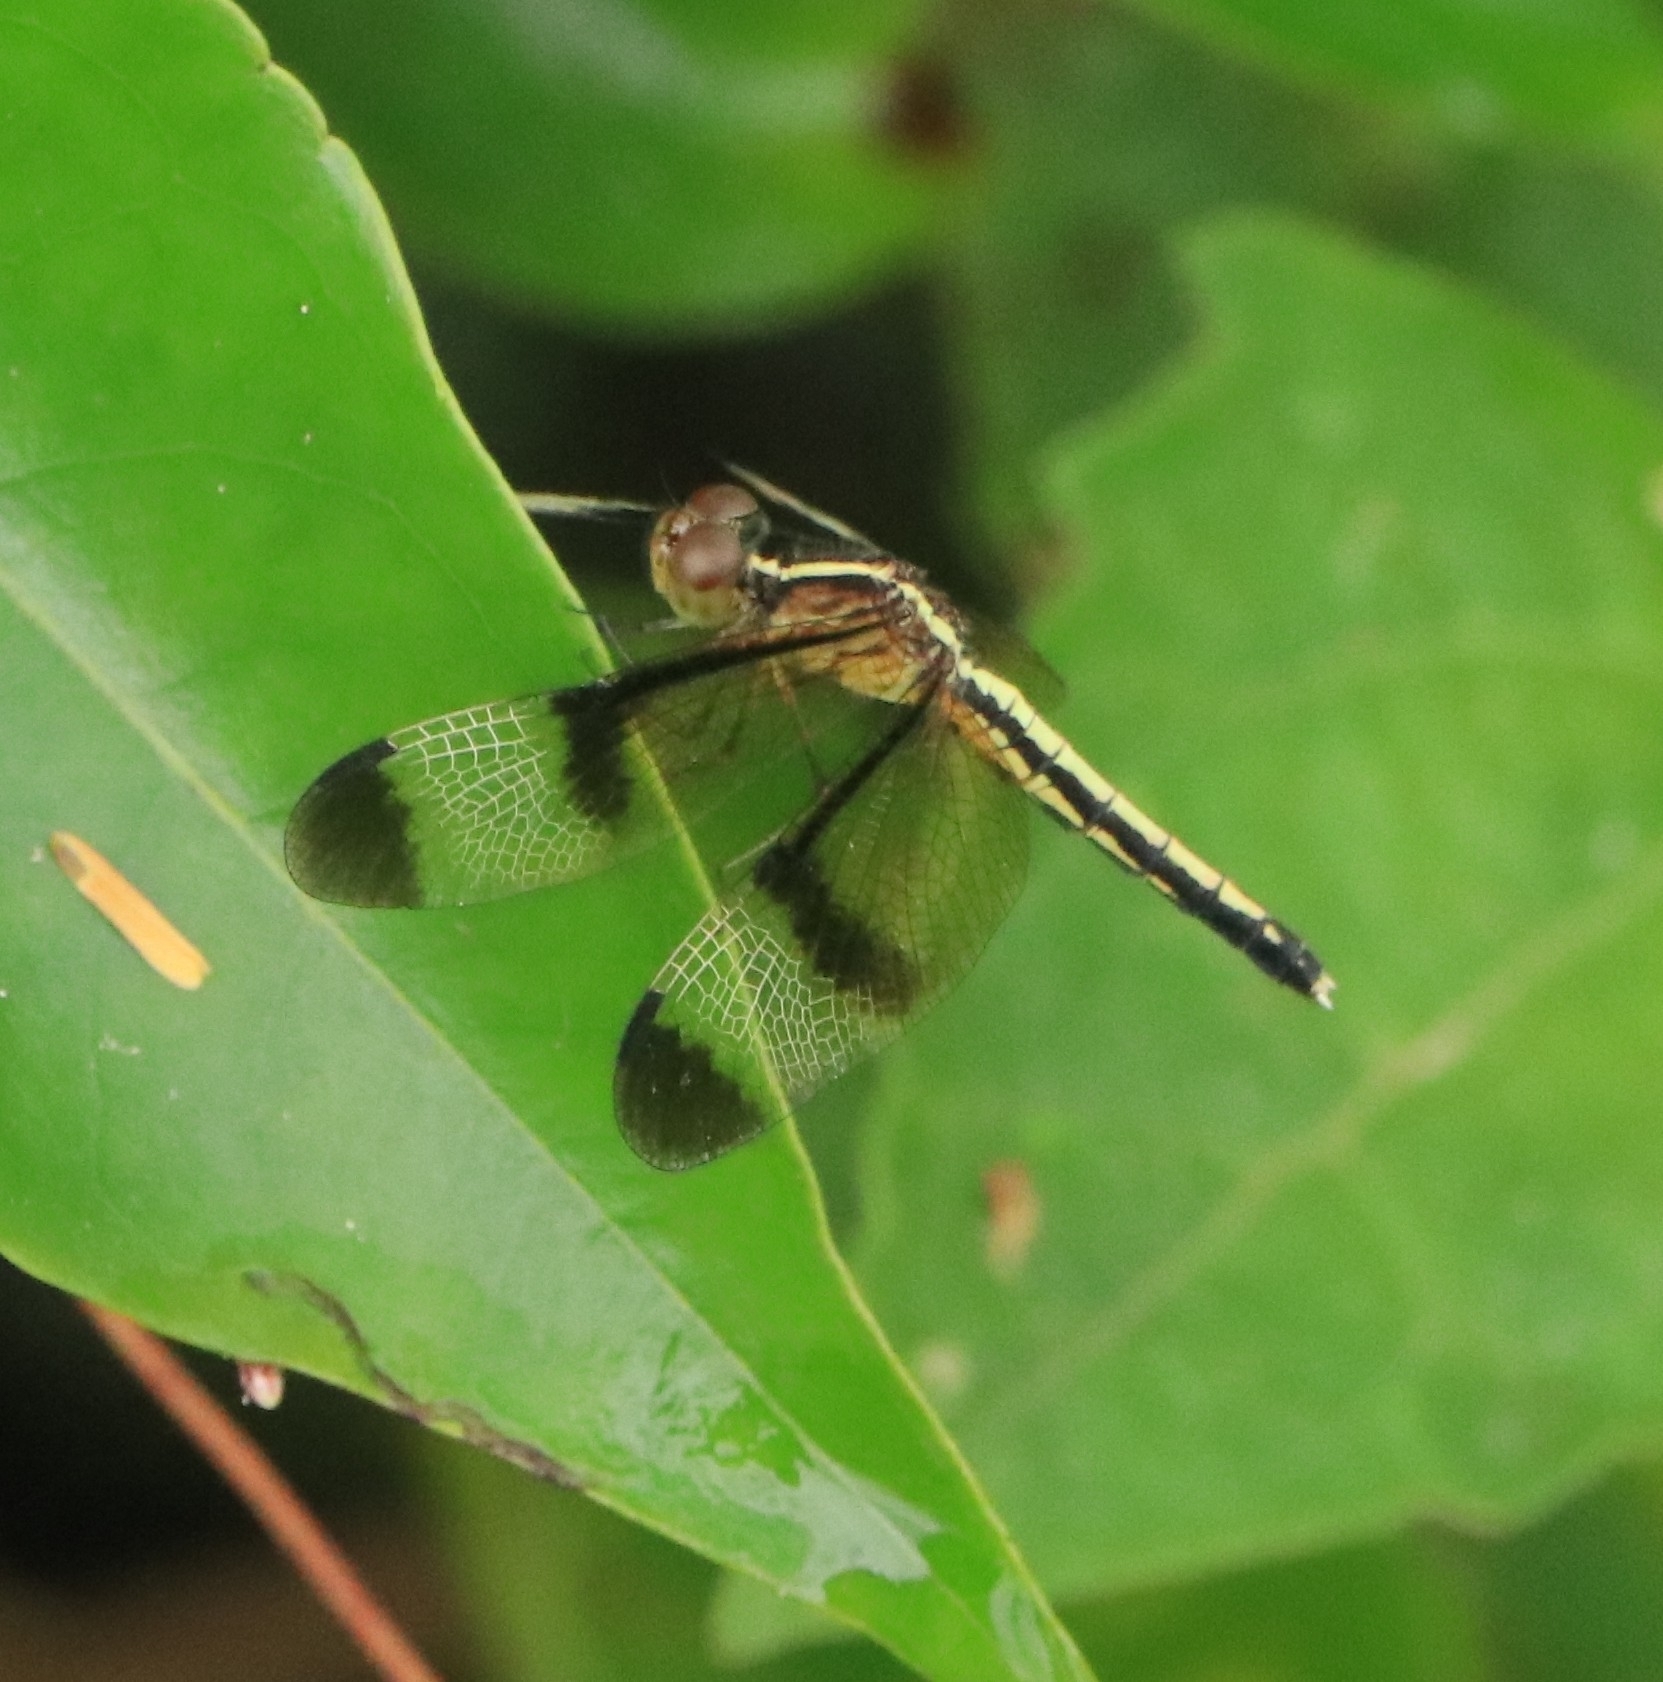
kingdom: Animalia
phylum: Arthropoda
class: Insecta
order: Odonata
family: Libellulidae
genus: Neurothemis
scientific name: Neurothemis tullia
